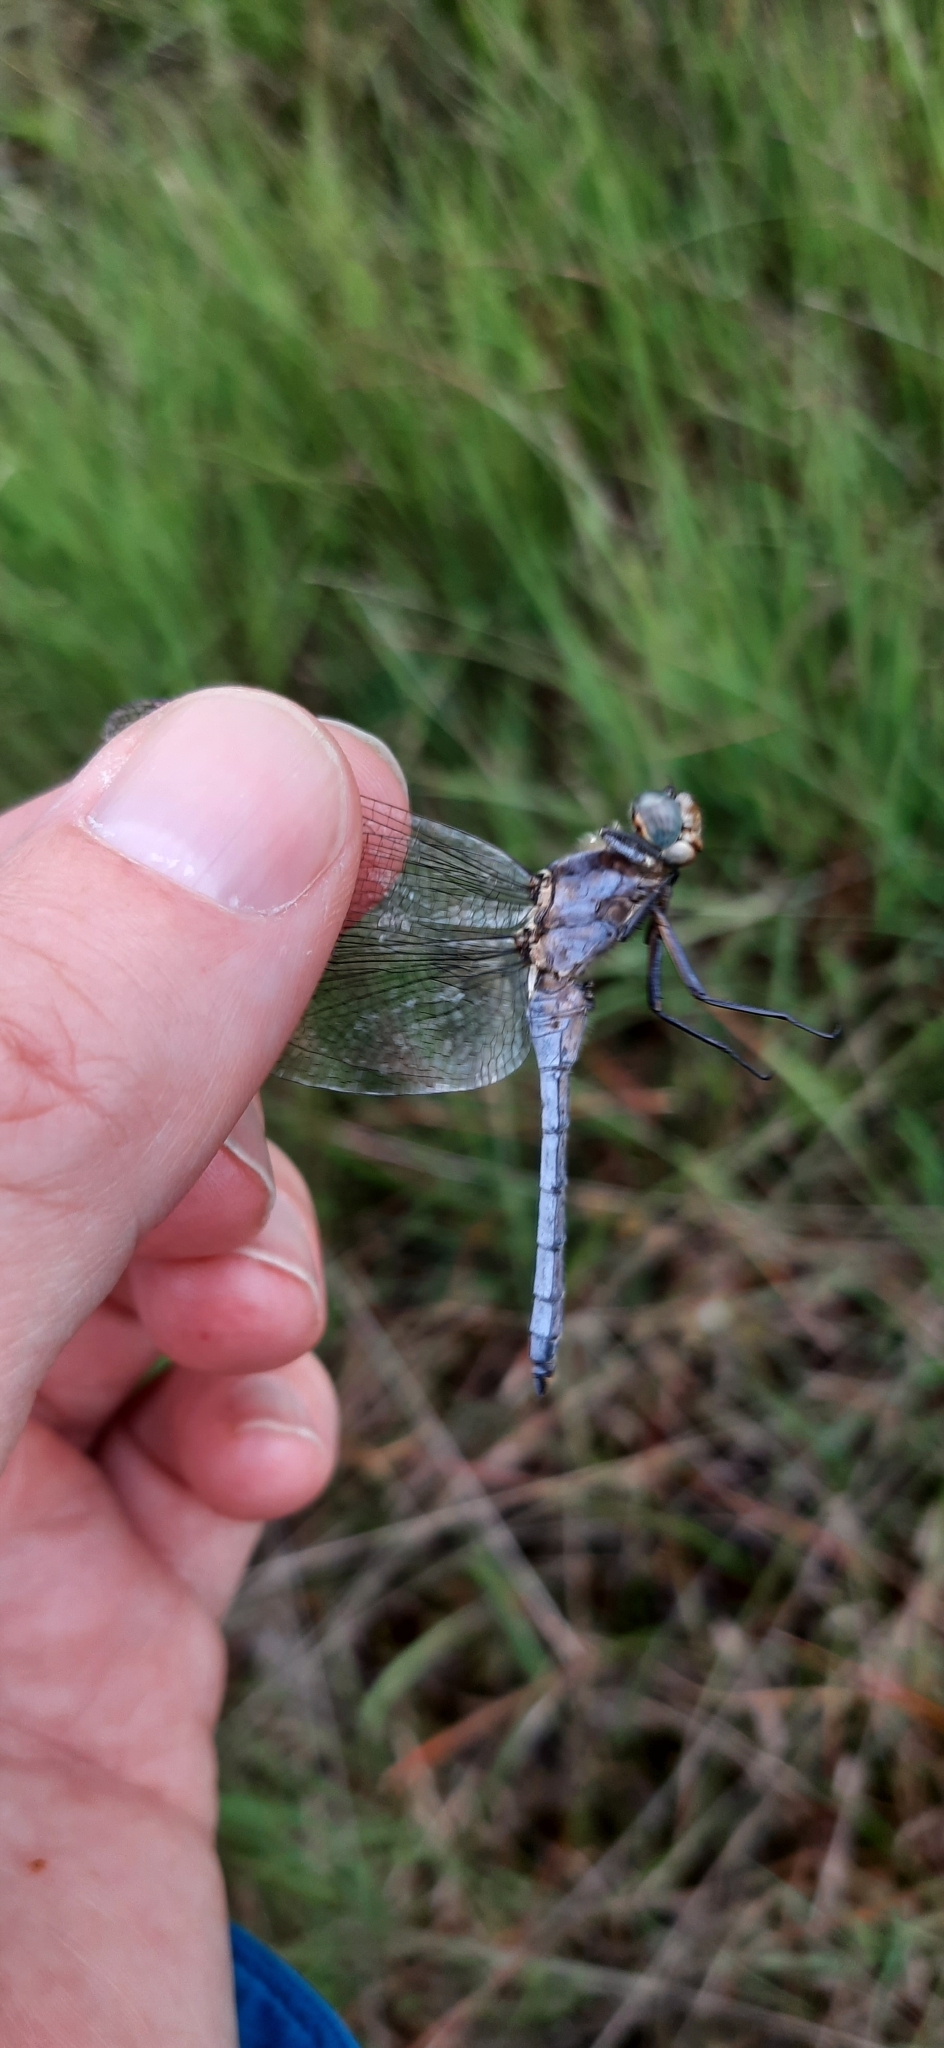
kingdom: Animalia
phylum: Arthropoda
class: Insecta
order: Odonata
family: Libellulidae
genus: Orthetrum
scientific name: Orthetrum coerulescens
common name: Keeled skimmer
